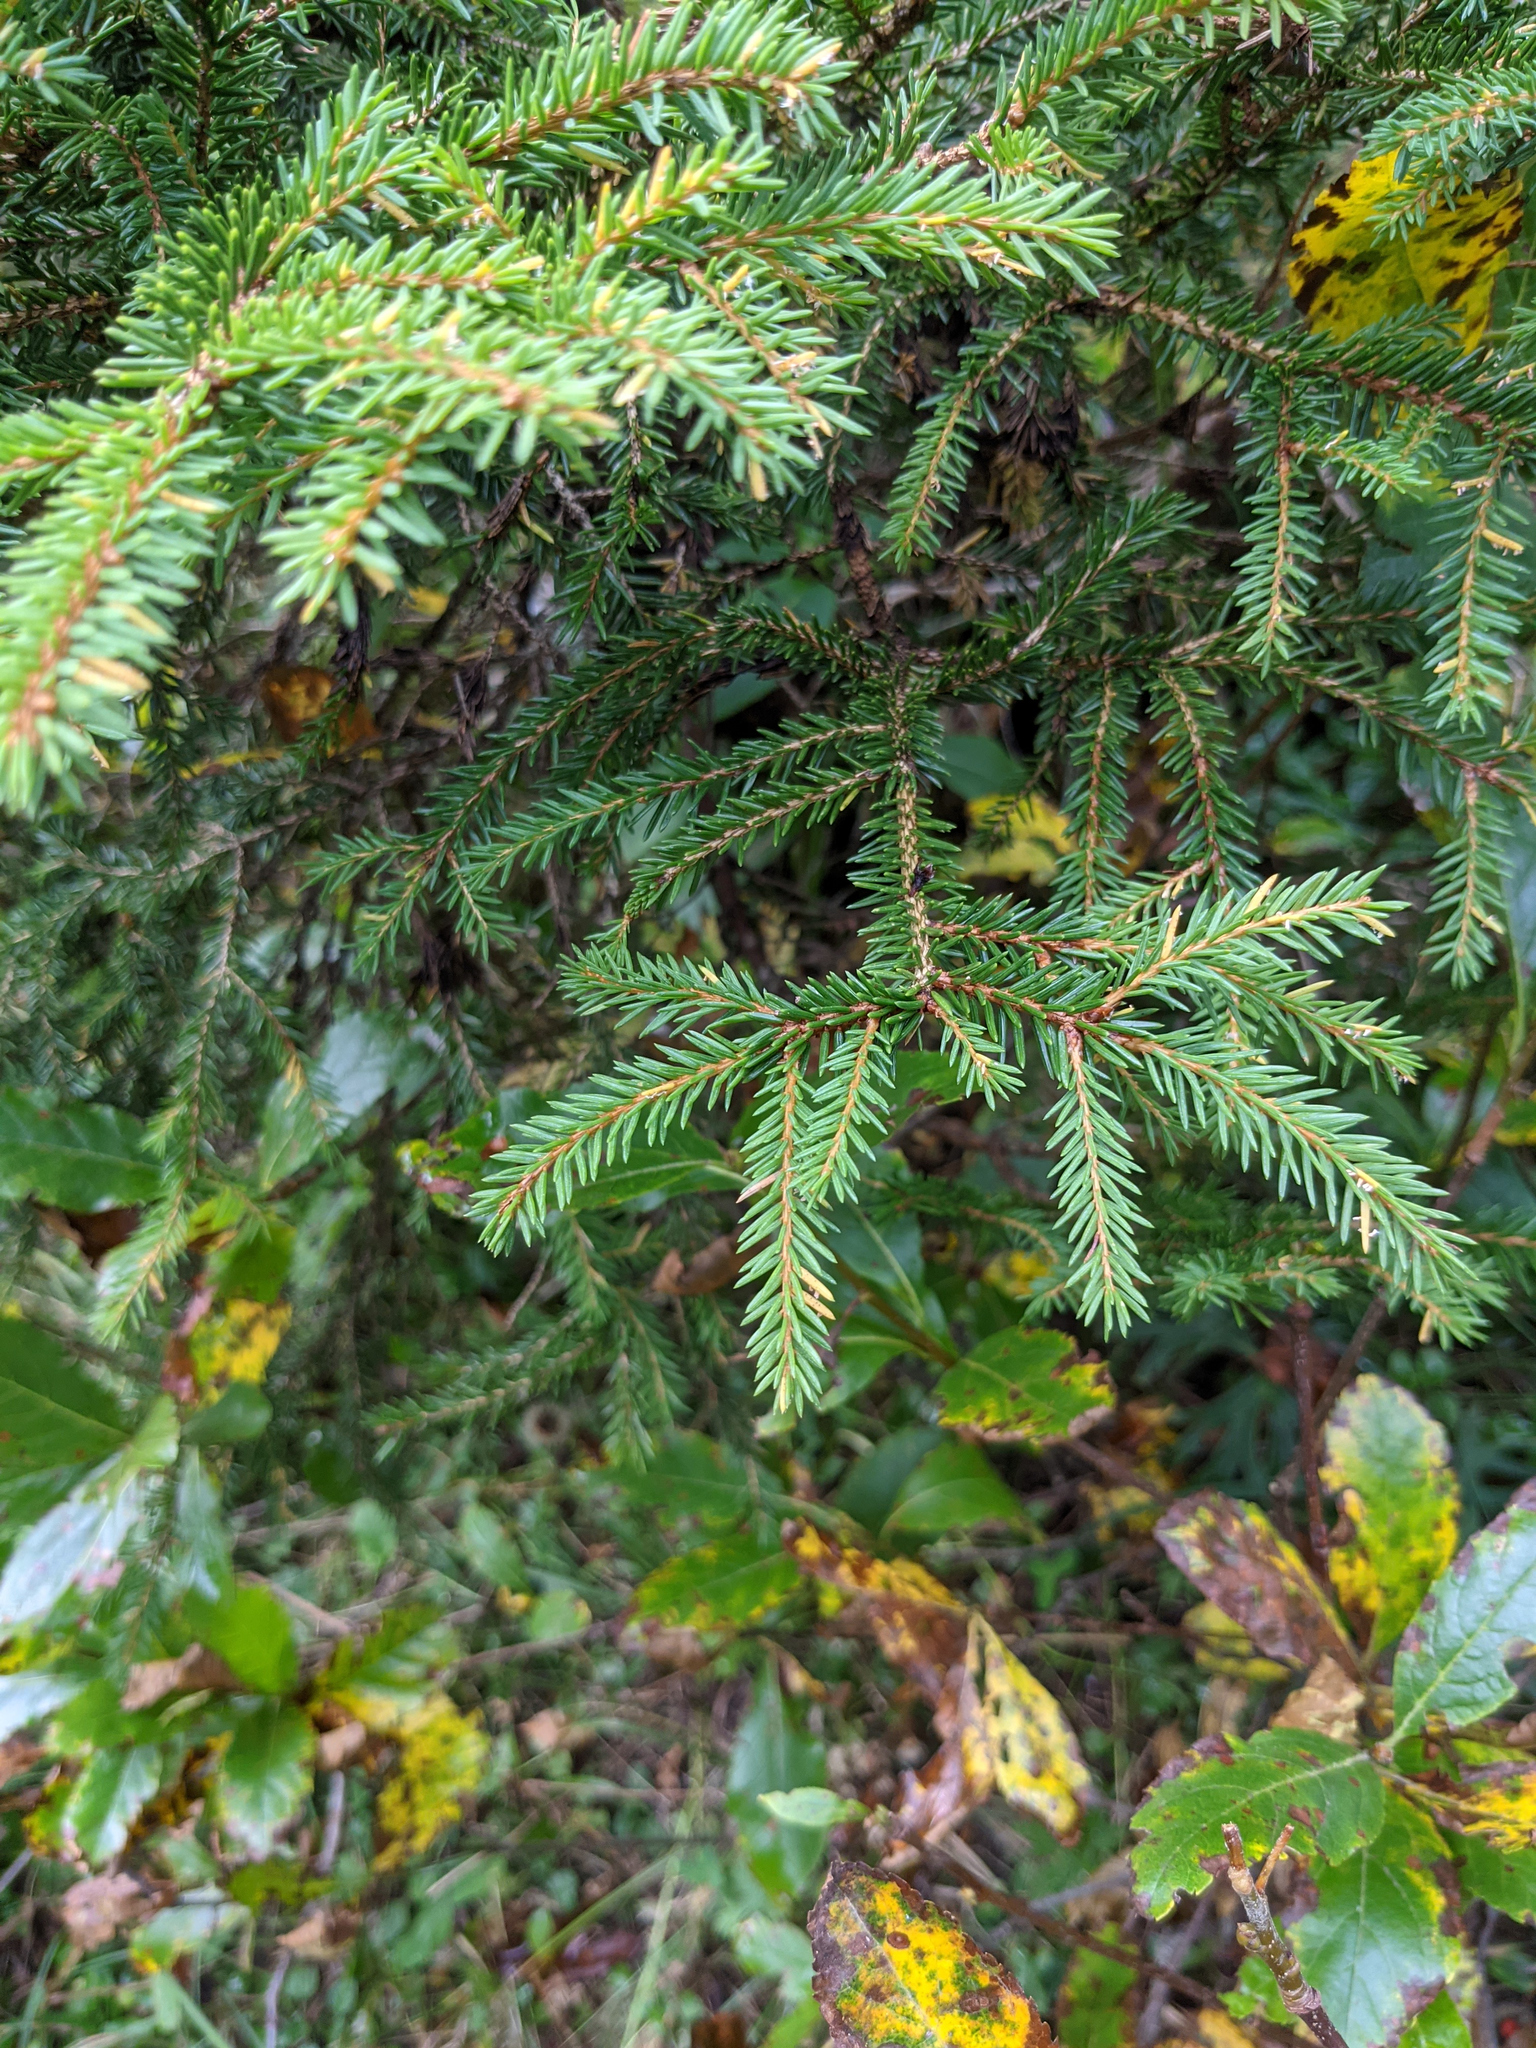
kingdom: Plantae
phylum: Tracheophyta
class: Pinopsida
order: Pinales
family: Pinaceae
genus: Picea
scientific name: Picea abies
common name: Norway spruce
